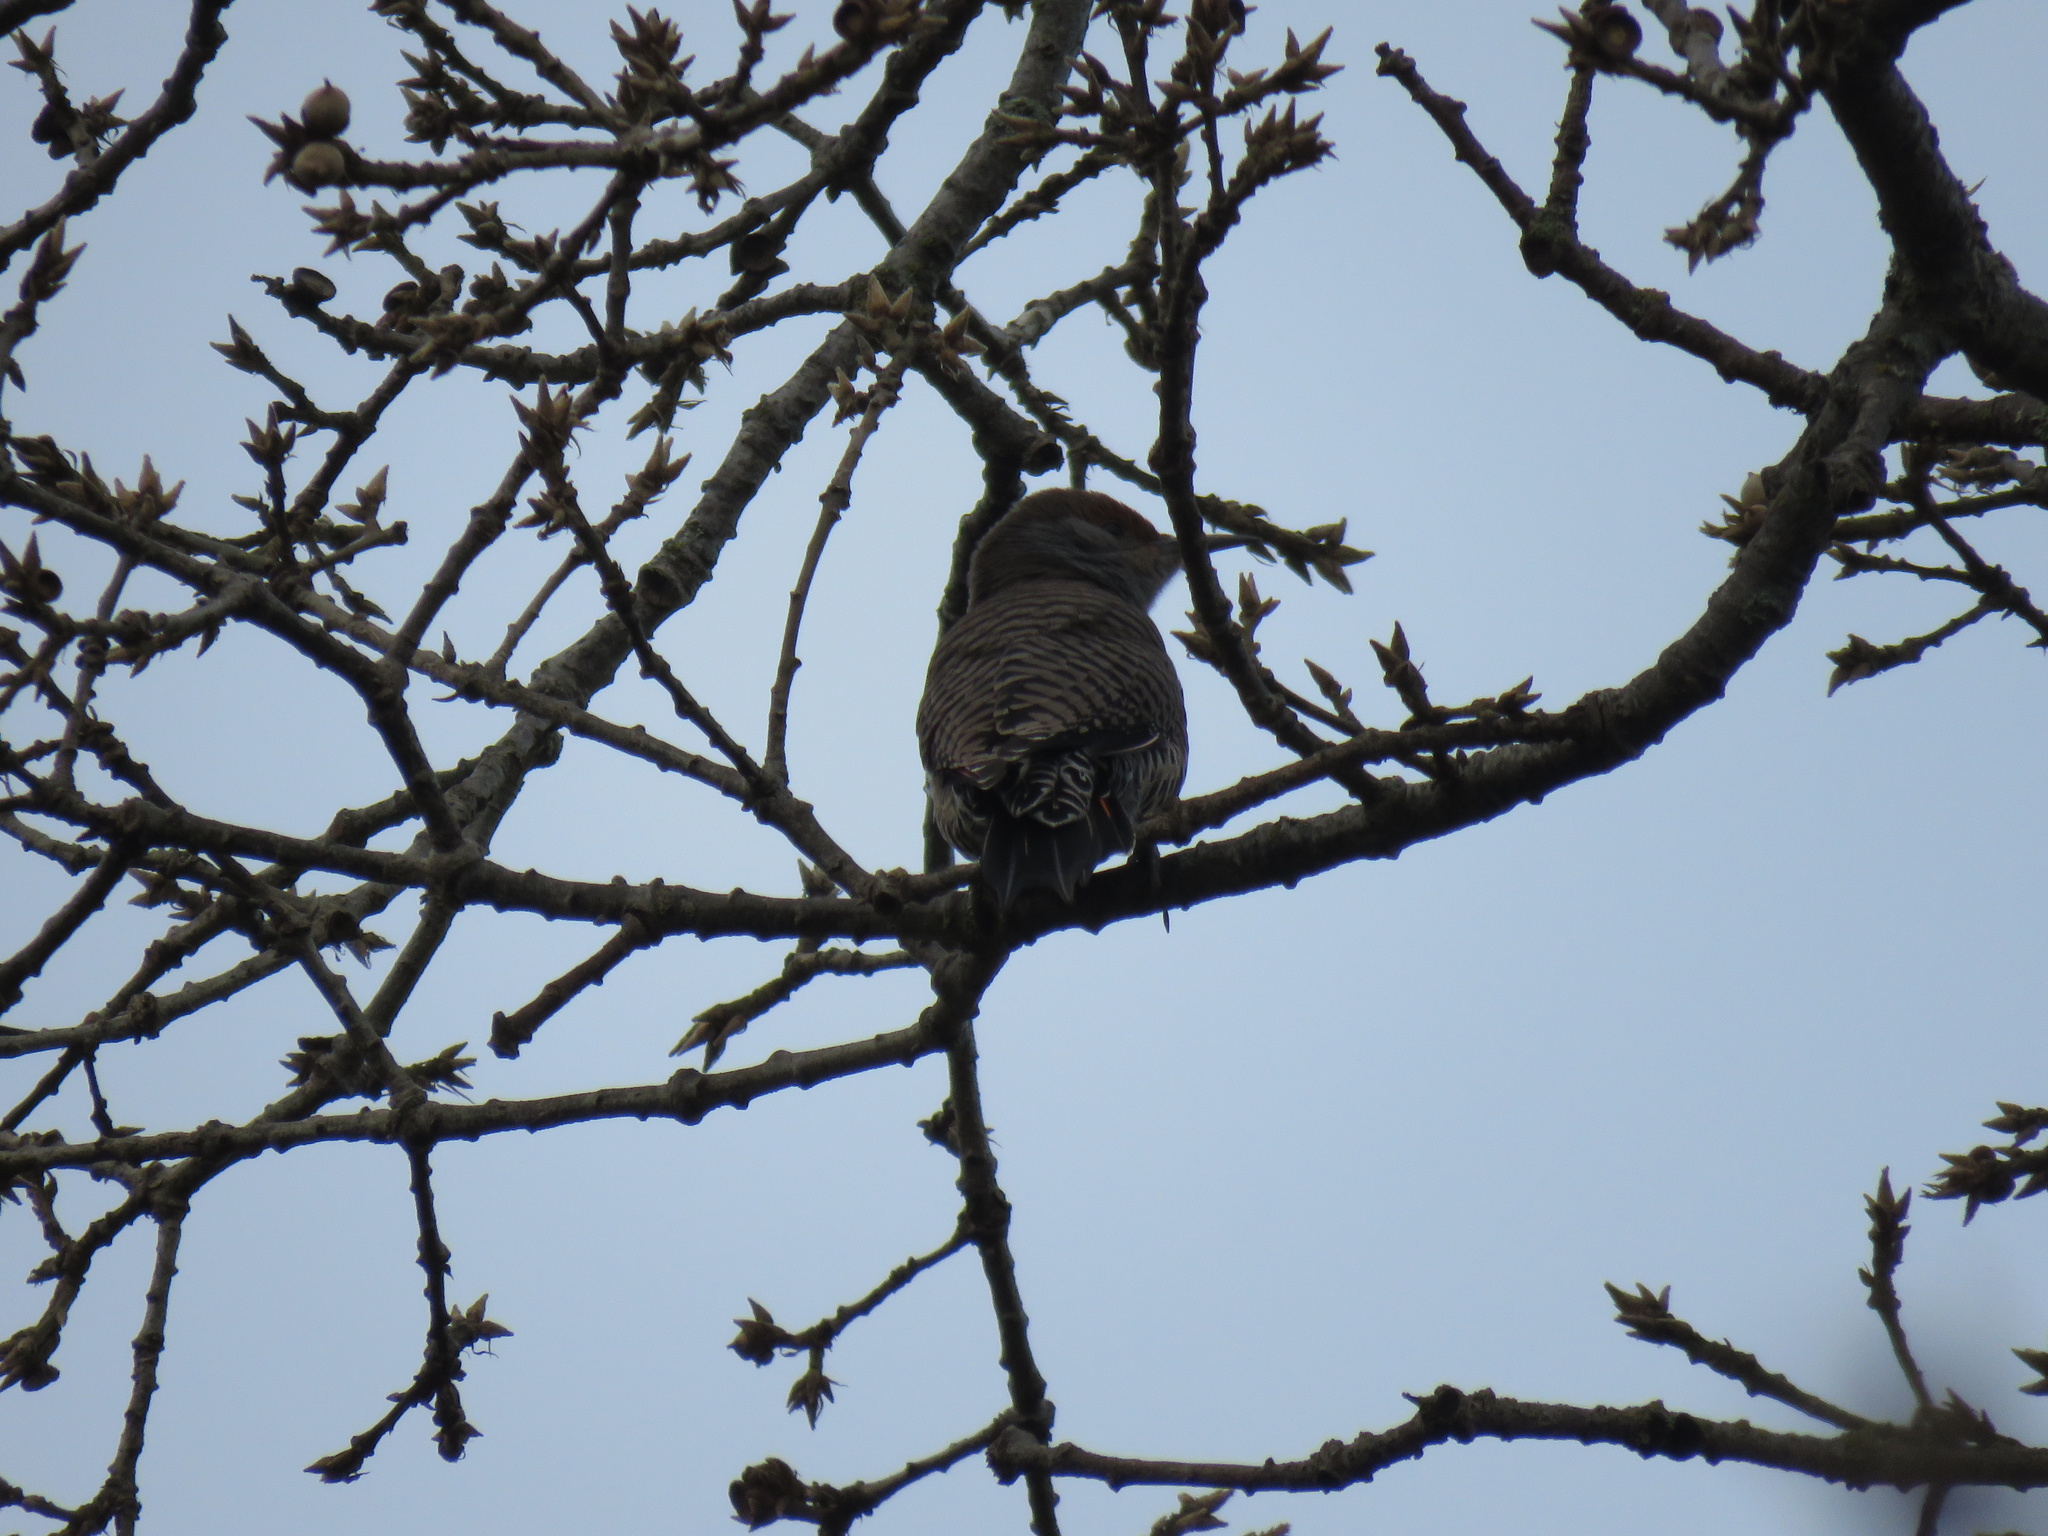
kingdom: Animalia
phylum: Chordata
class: Aves
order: Piciformes
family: Picidae
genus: Colaptes
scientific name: Colaptes auratus
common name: Northern flicker
